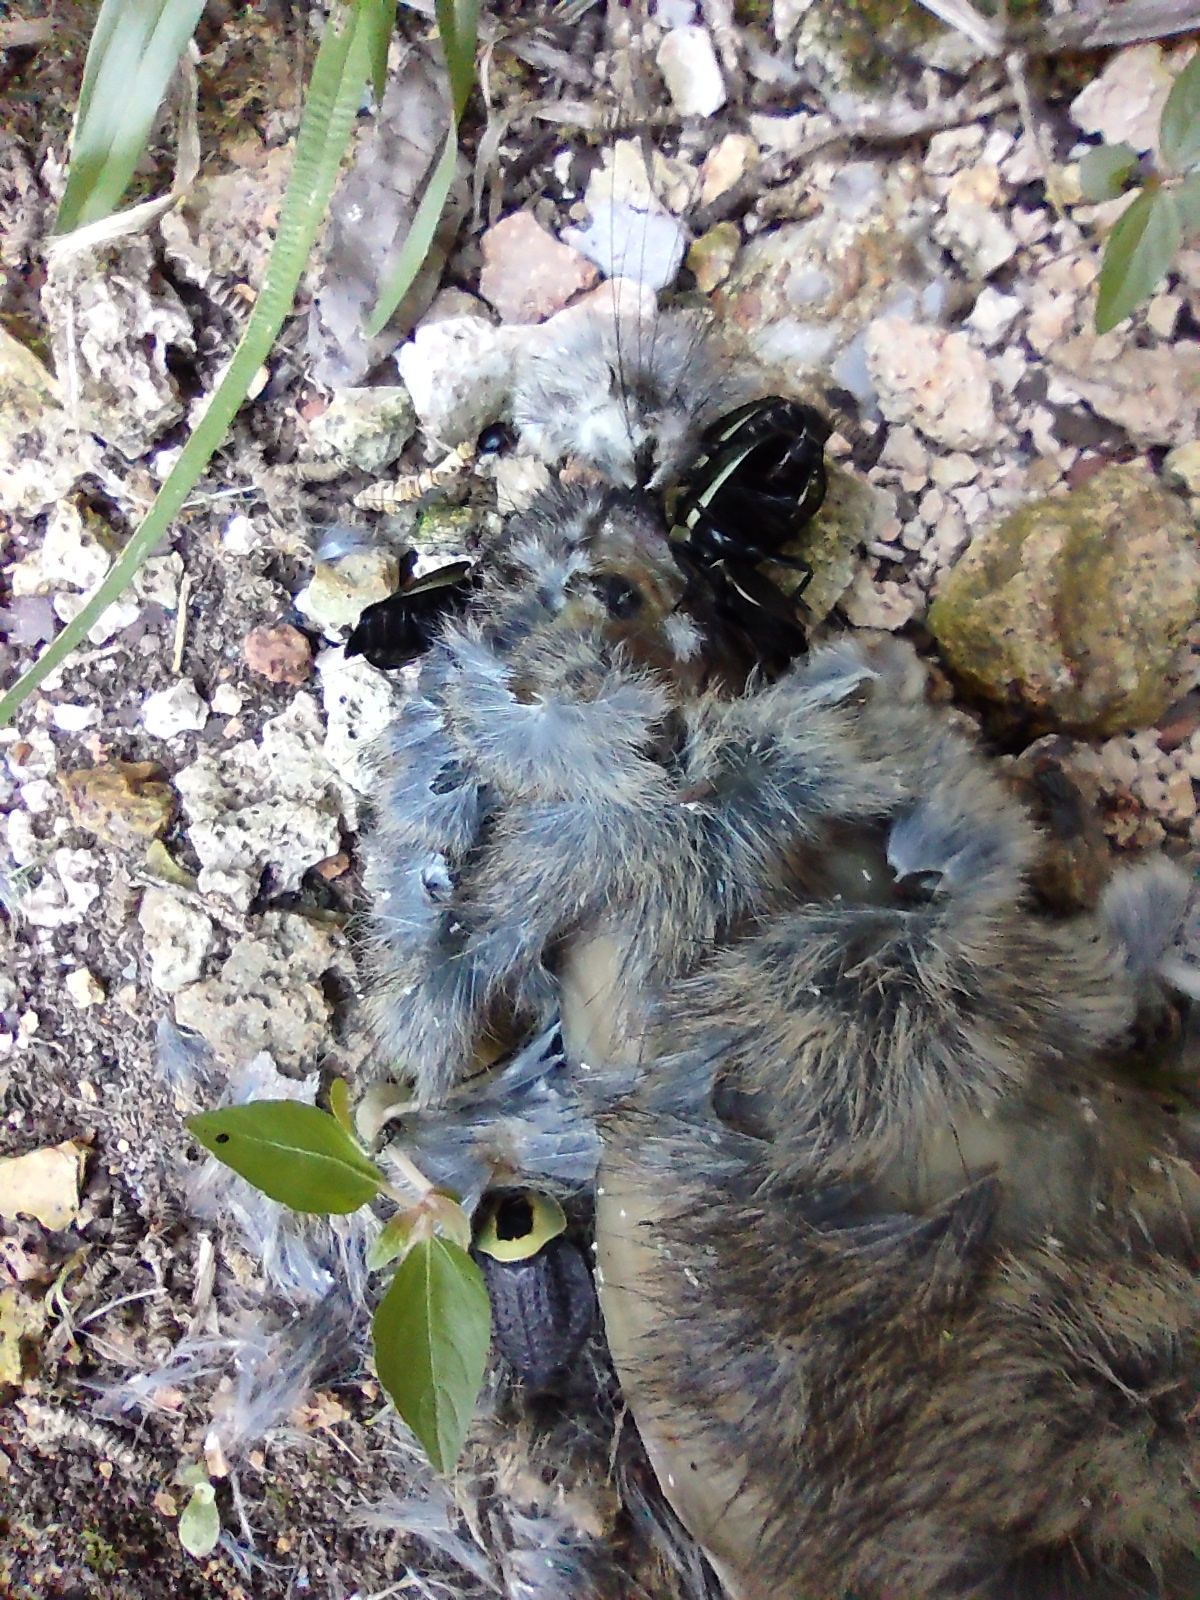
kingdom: Animalia
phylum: Arthropoda
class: Insecta
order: Coleoptera
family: Staphylinidae
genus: Necrophila
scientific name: Necrophila americana
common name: American carrion beetle
